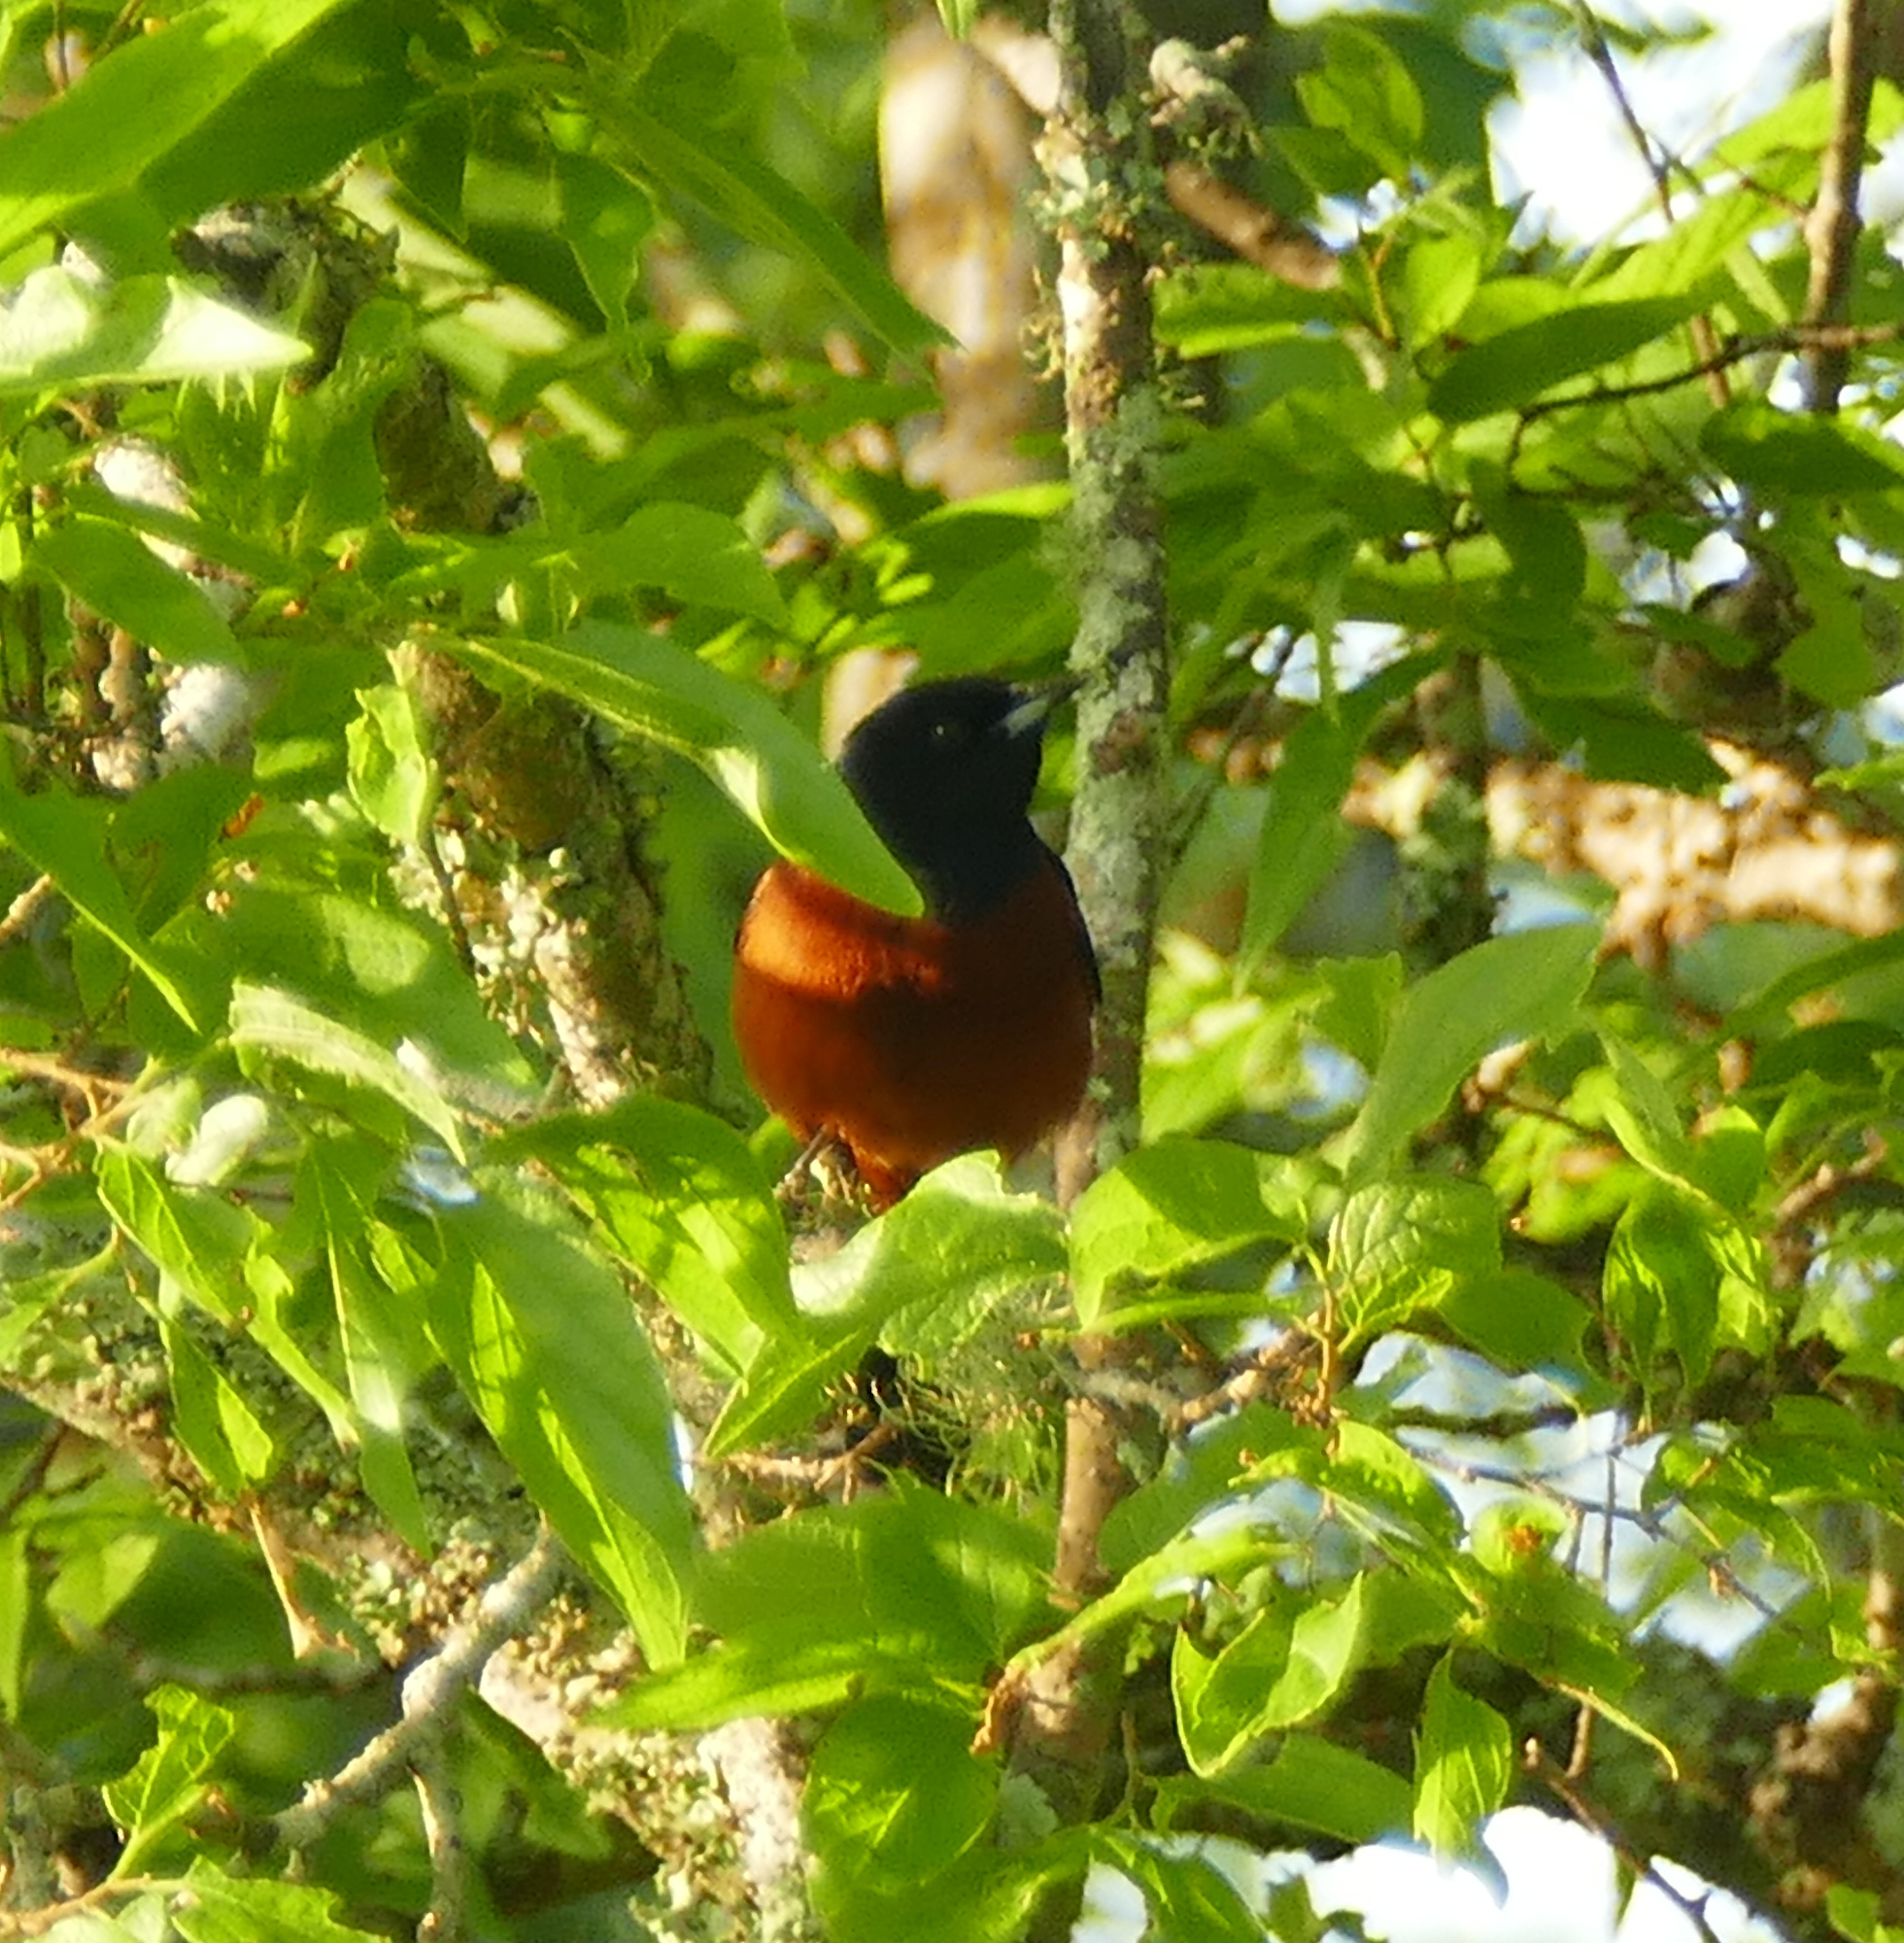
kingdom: Animalia
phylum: Chordata
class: Aves
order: Passeriformes
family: Icteridae
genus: Icterus
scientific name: Icterus spurius
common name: Orchard oriole
